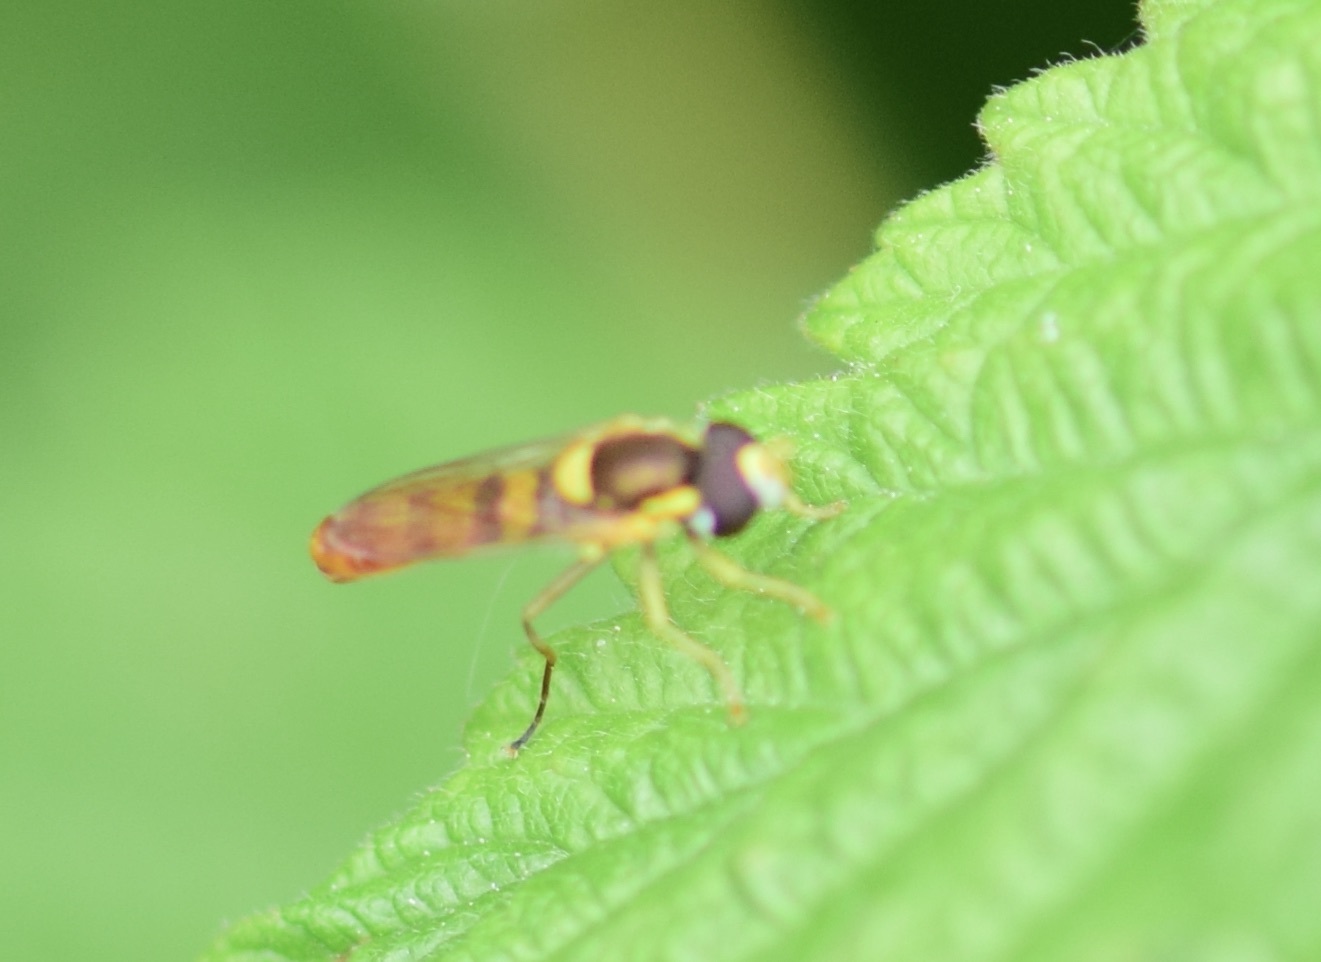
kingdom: Animalia
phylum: Arthropoda
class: Insecta
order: Diptera
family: Syrphidae
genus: Sphaerophoria
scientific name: Sphaerophoria contigua
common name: Tufted globetail
